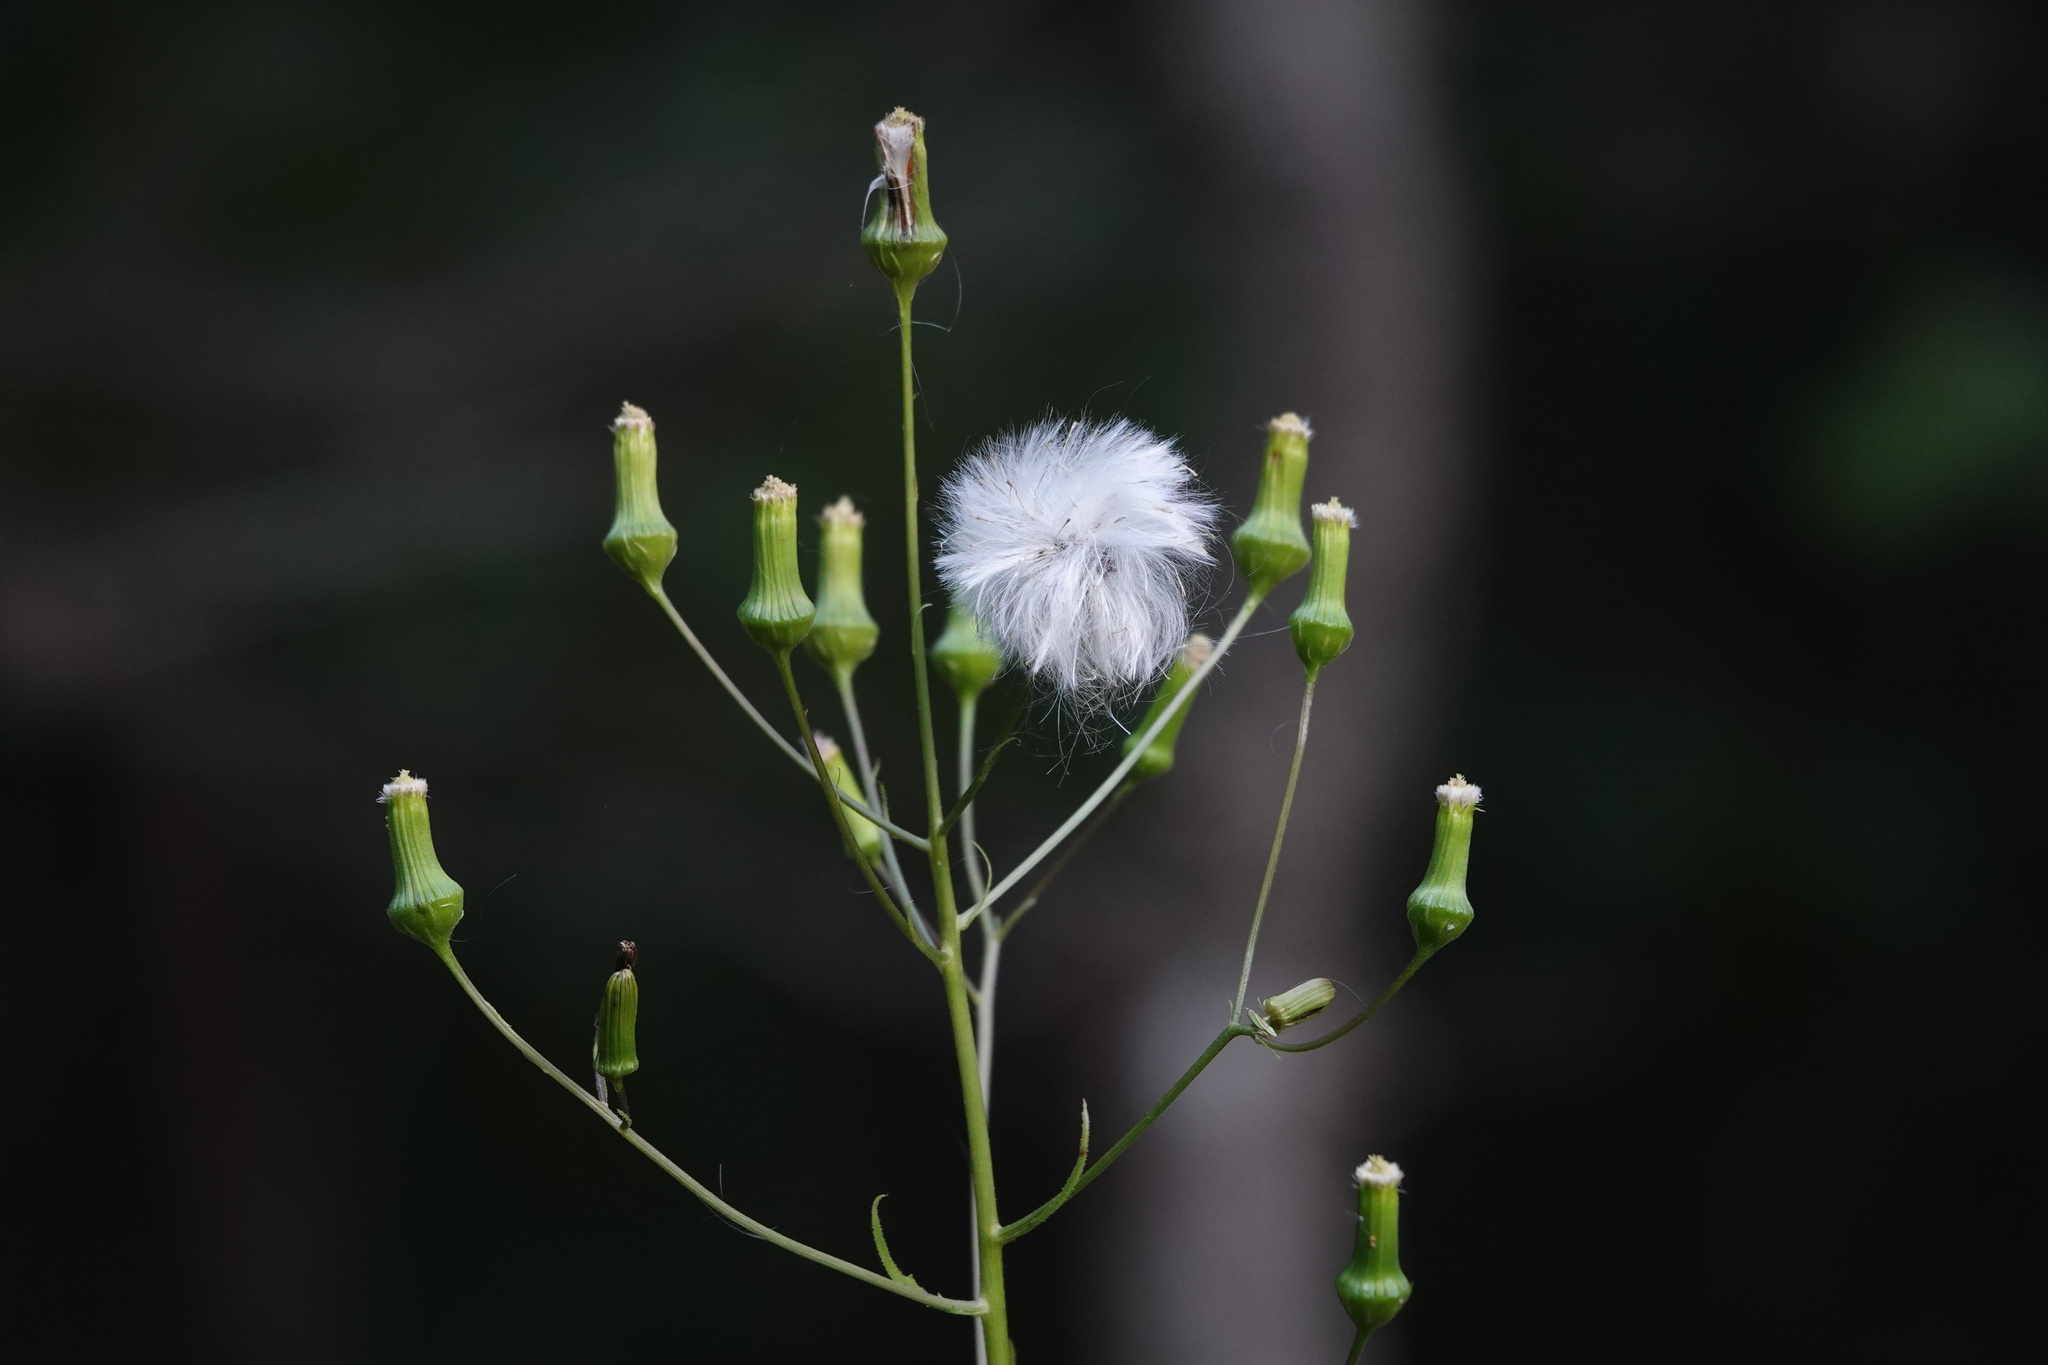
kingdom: Plantae
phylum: Tracheophyta
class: Magnoliopsida
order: Asterales
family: Asteraceae
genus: Erechtites
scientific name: Erechtites hieraciifolius
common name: American burnweed
